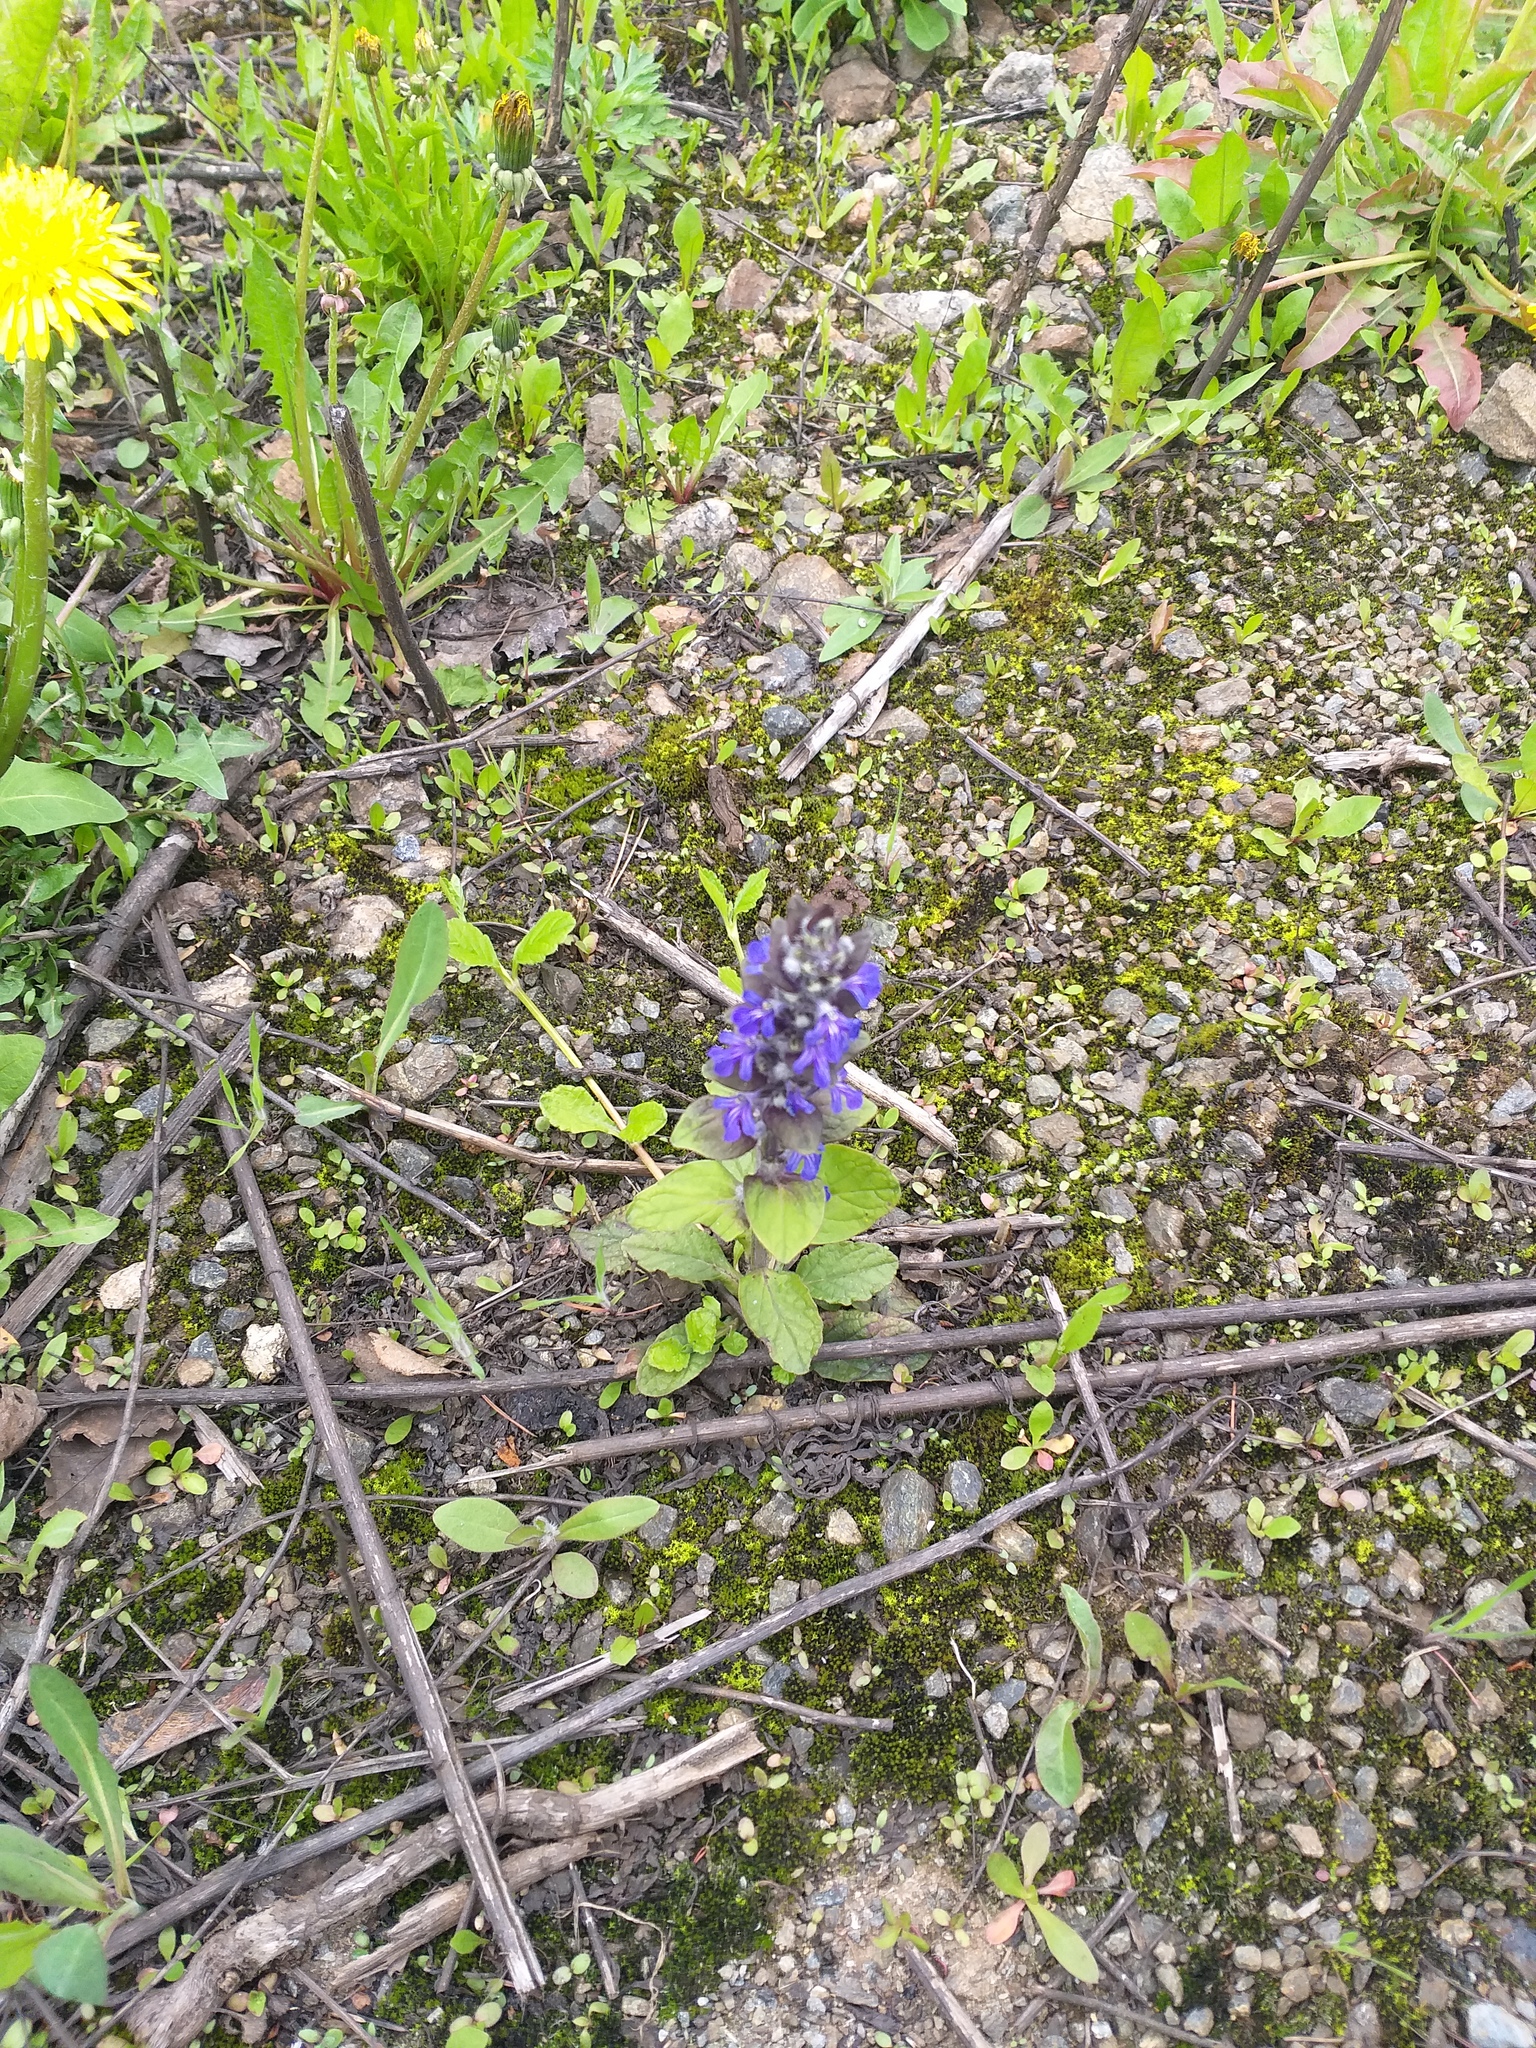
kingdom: Plantae
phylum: Tracheophyta
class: Magnoliopsida
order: Lamiales
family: Lamiaceae
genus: Ajuga
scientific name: Ajuga reptans
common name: Bugle
